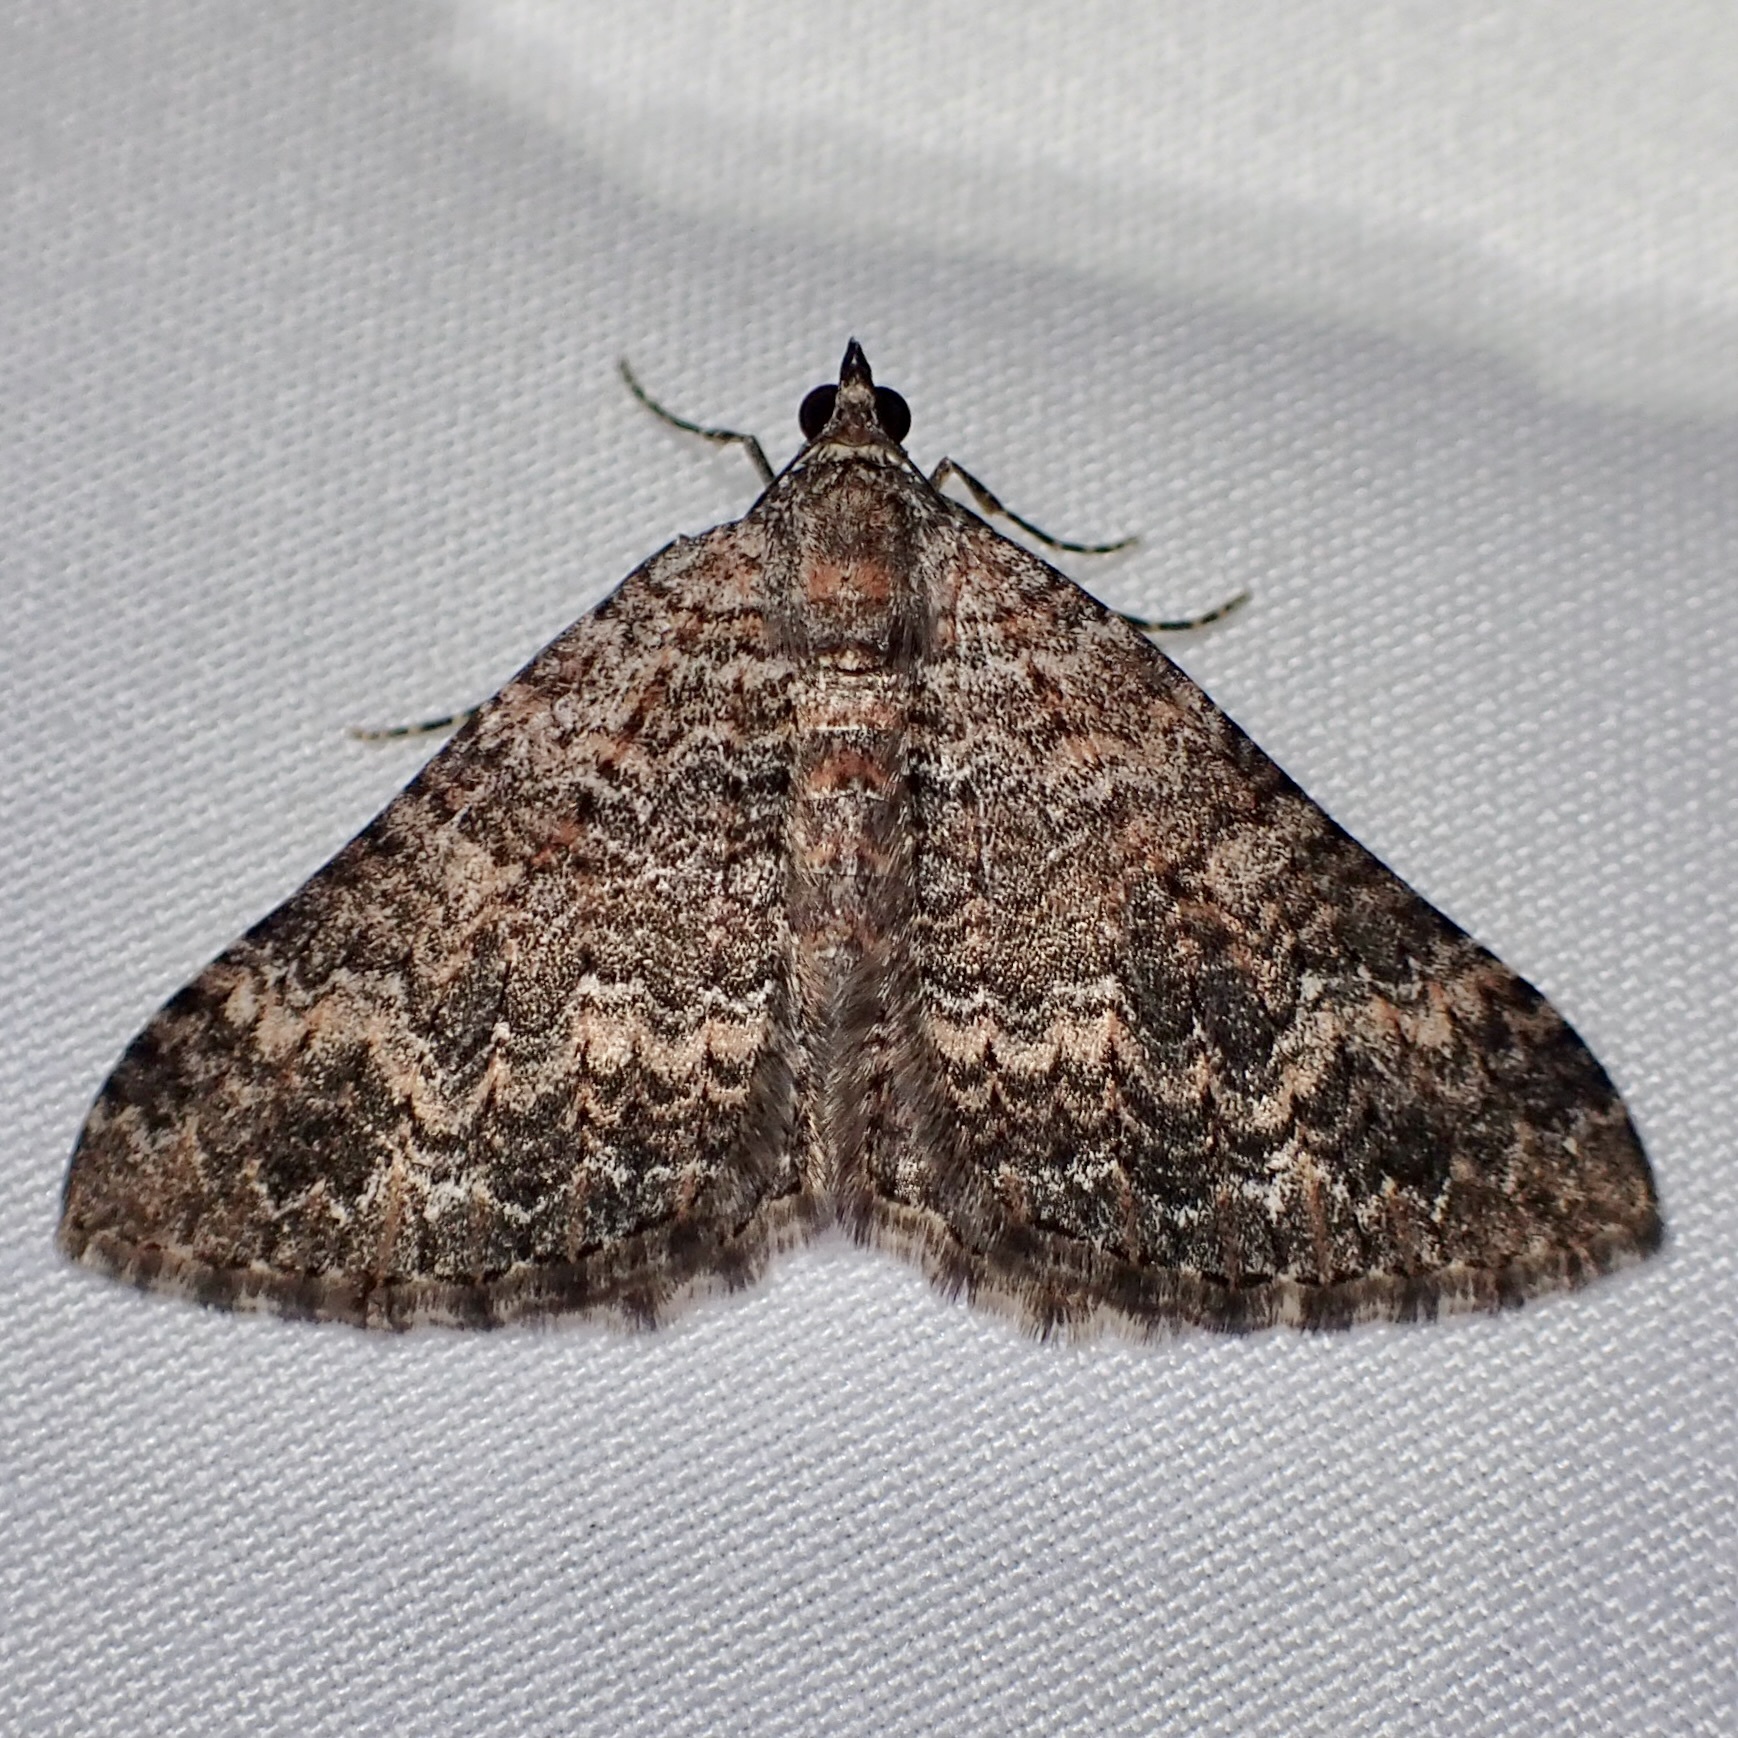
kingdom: Animalia
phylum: Arthropoda
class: Insecta
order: Lepidoptera
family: Geometridae
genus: Archirhoe
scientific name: Archirhoe neomexicana
